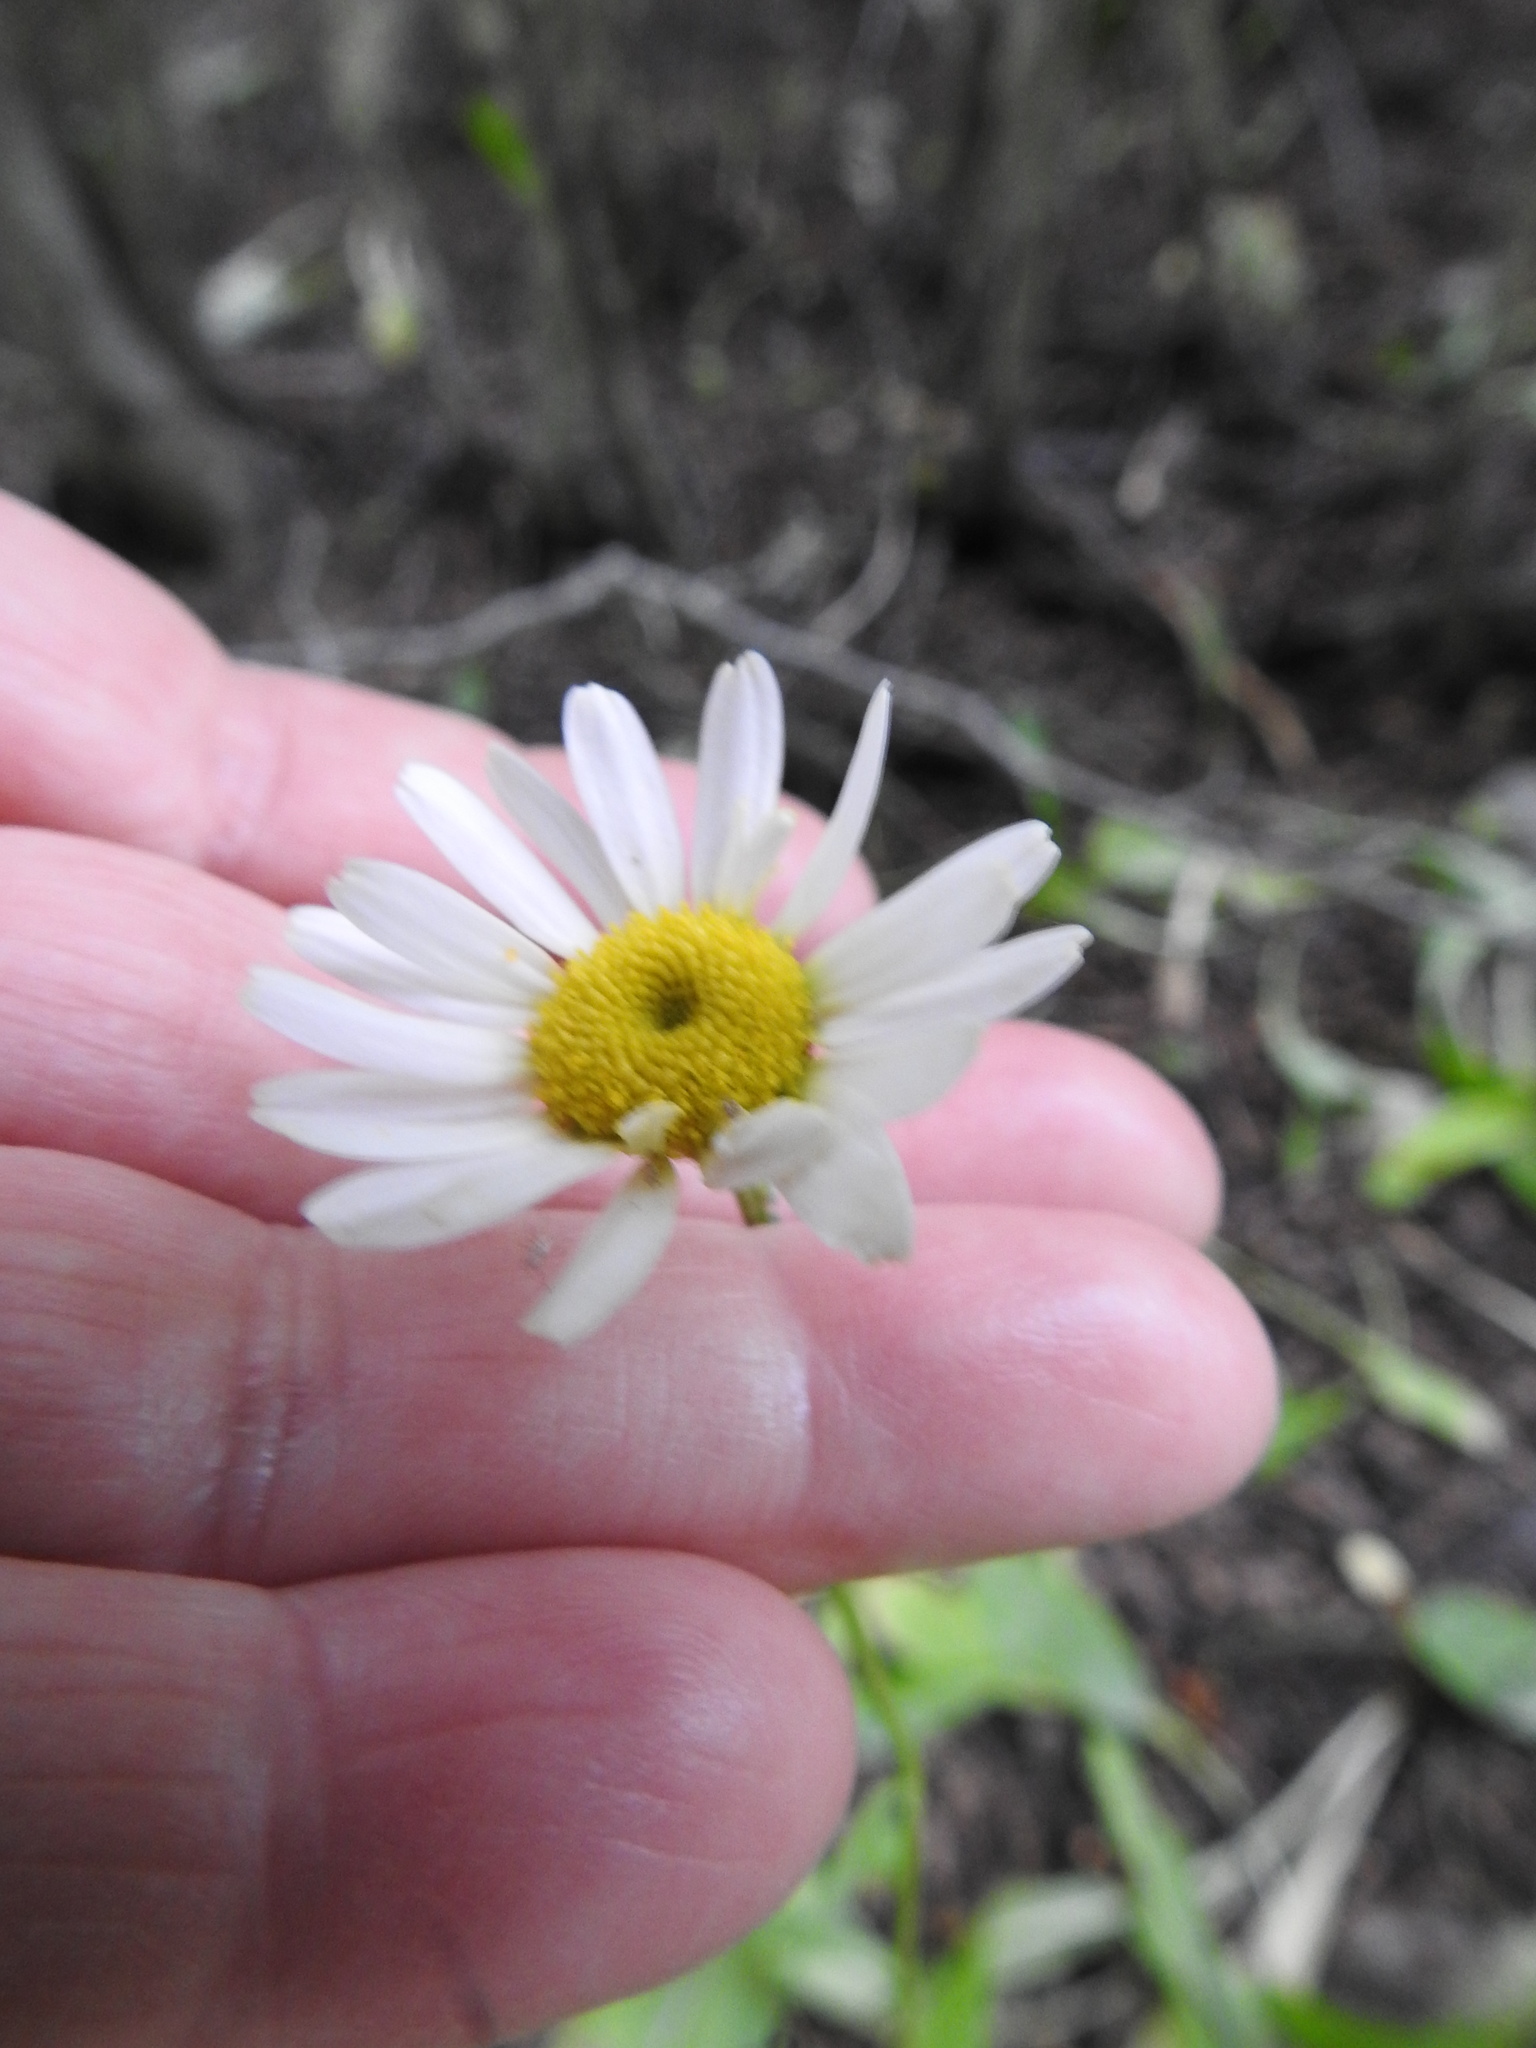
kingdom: Plantae
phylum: Tracheophyta
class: Magnoliopsida
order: Asterales
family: Asteraceae
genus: Leucanthemum
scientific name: Leucanthemum vulgare
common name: Oxeye daisy
